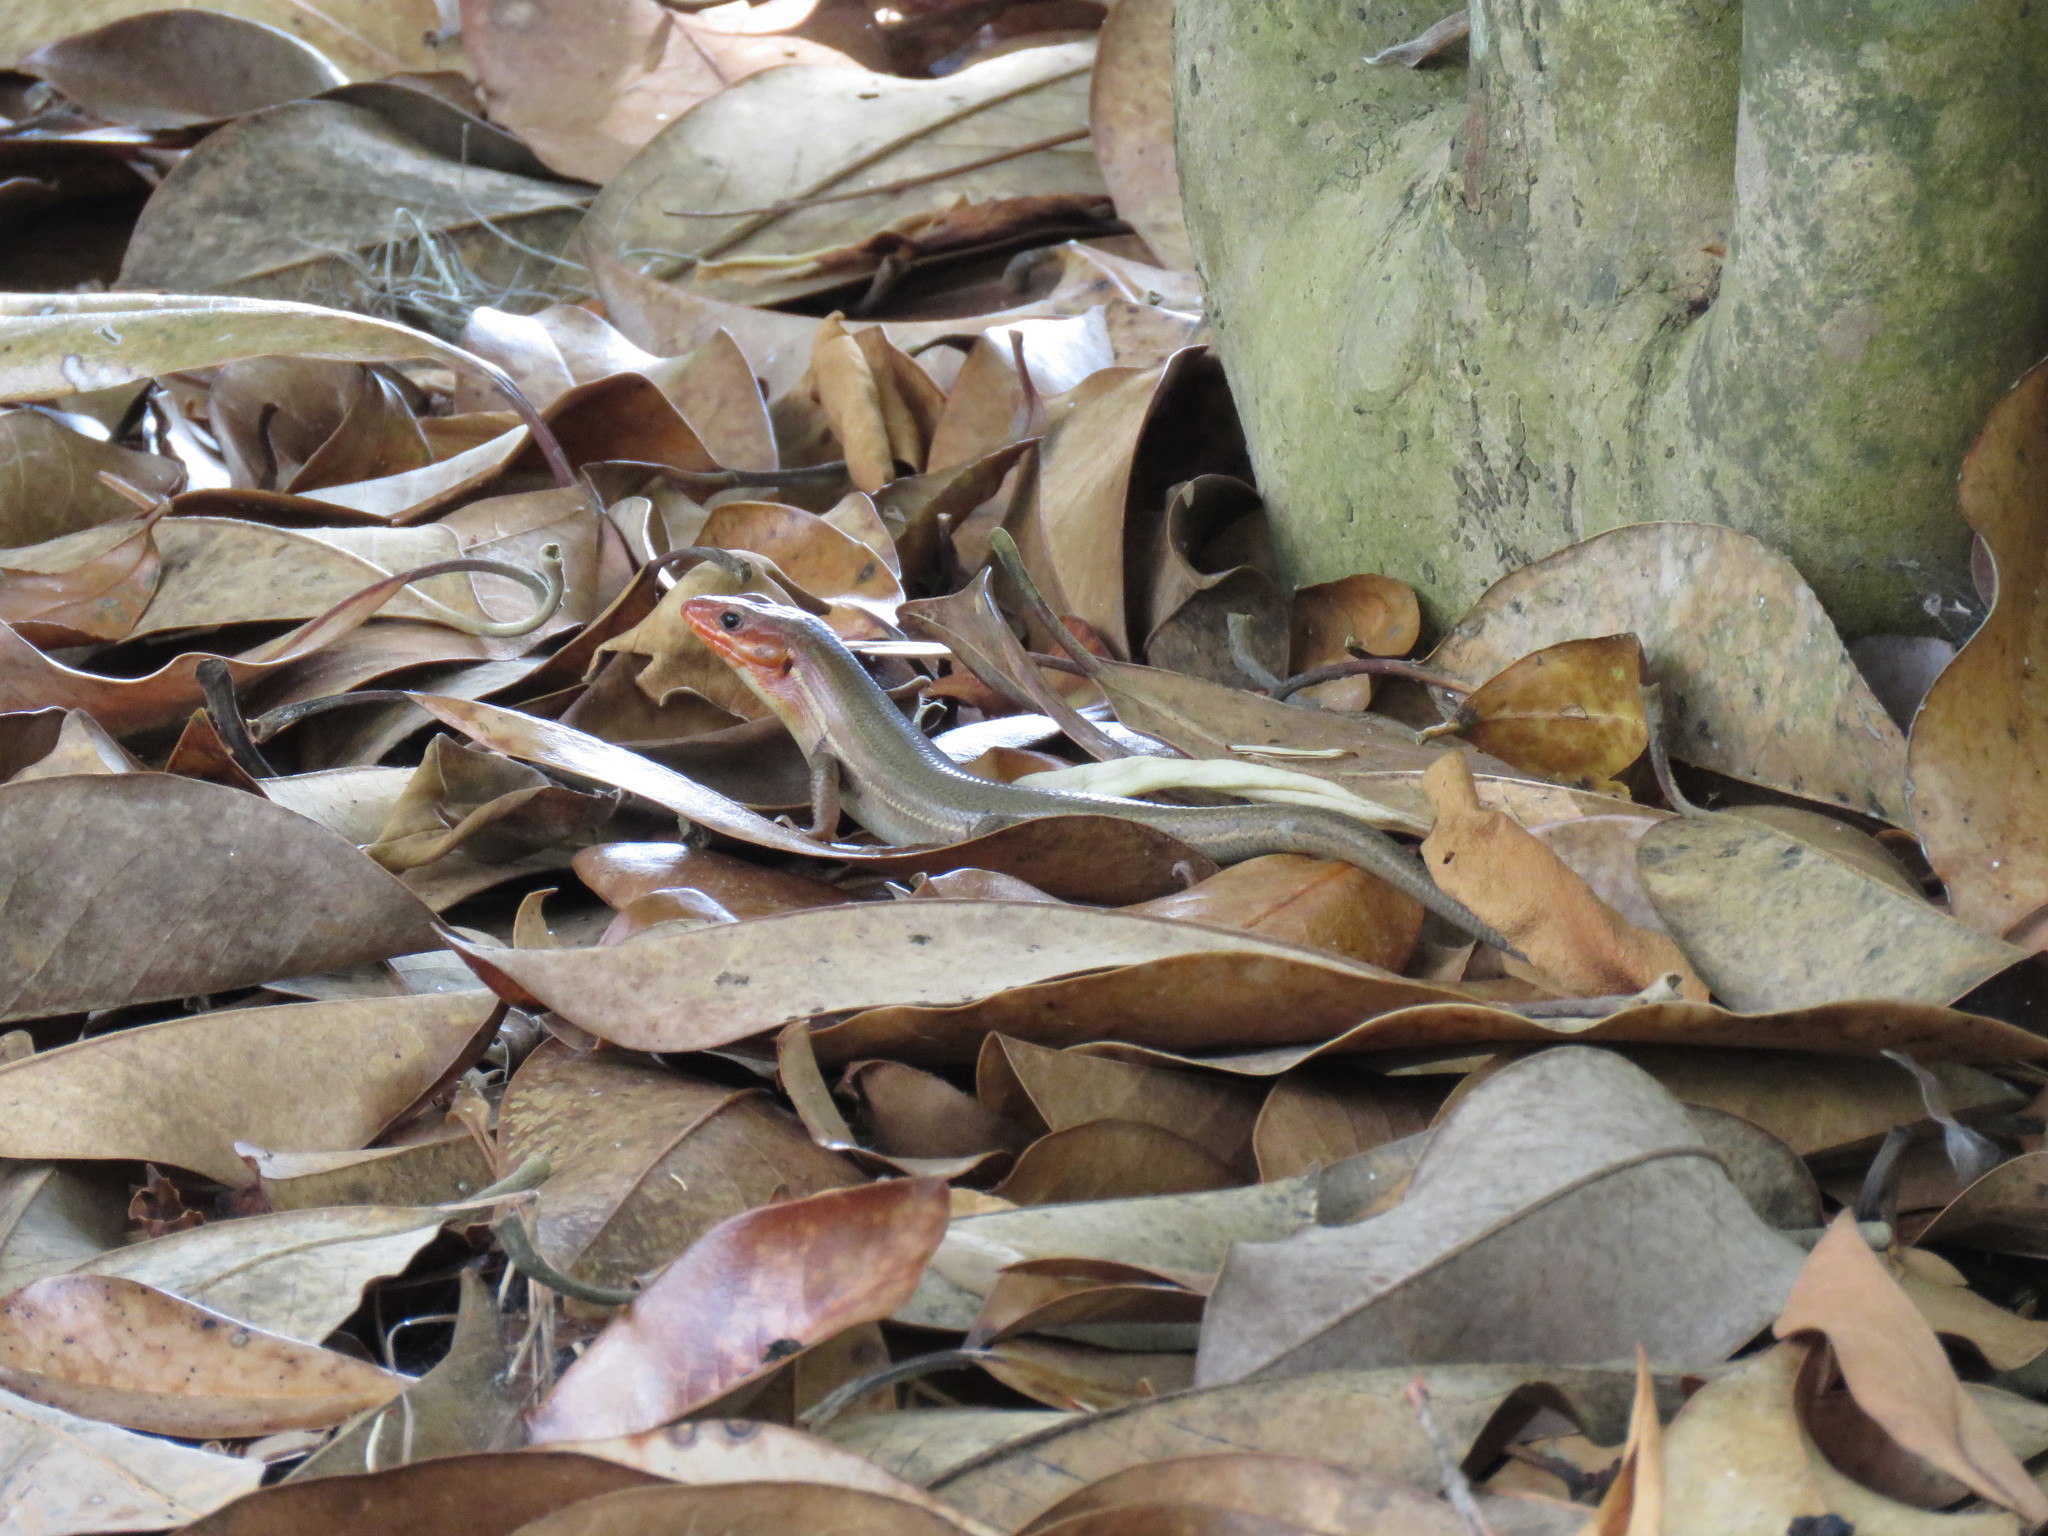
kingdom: Animalia
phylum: Chordata
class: Squamata
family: Scincidae
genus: Plestiodon
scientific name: Plestiodon laticeps
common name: Broadhead skink
